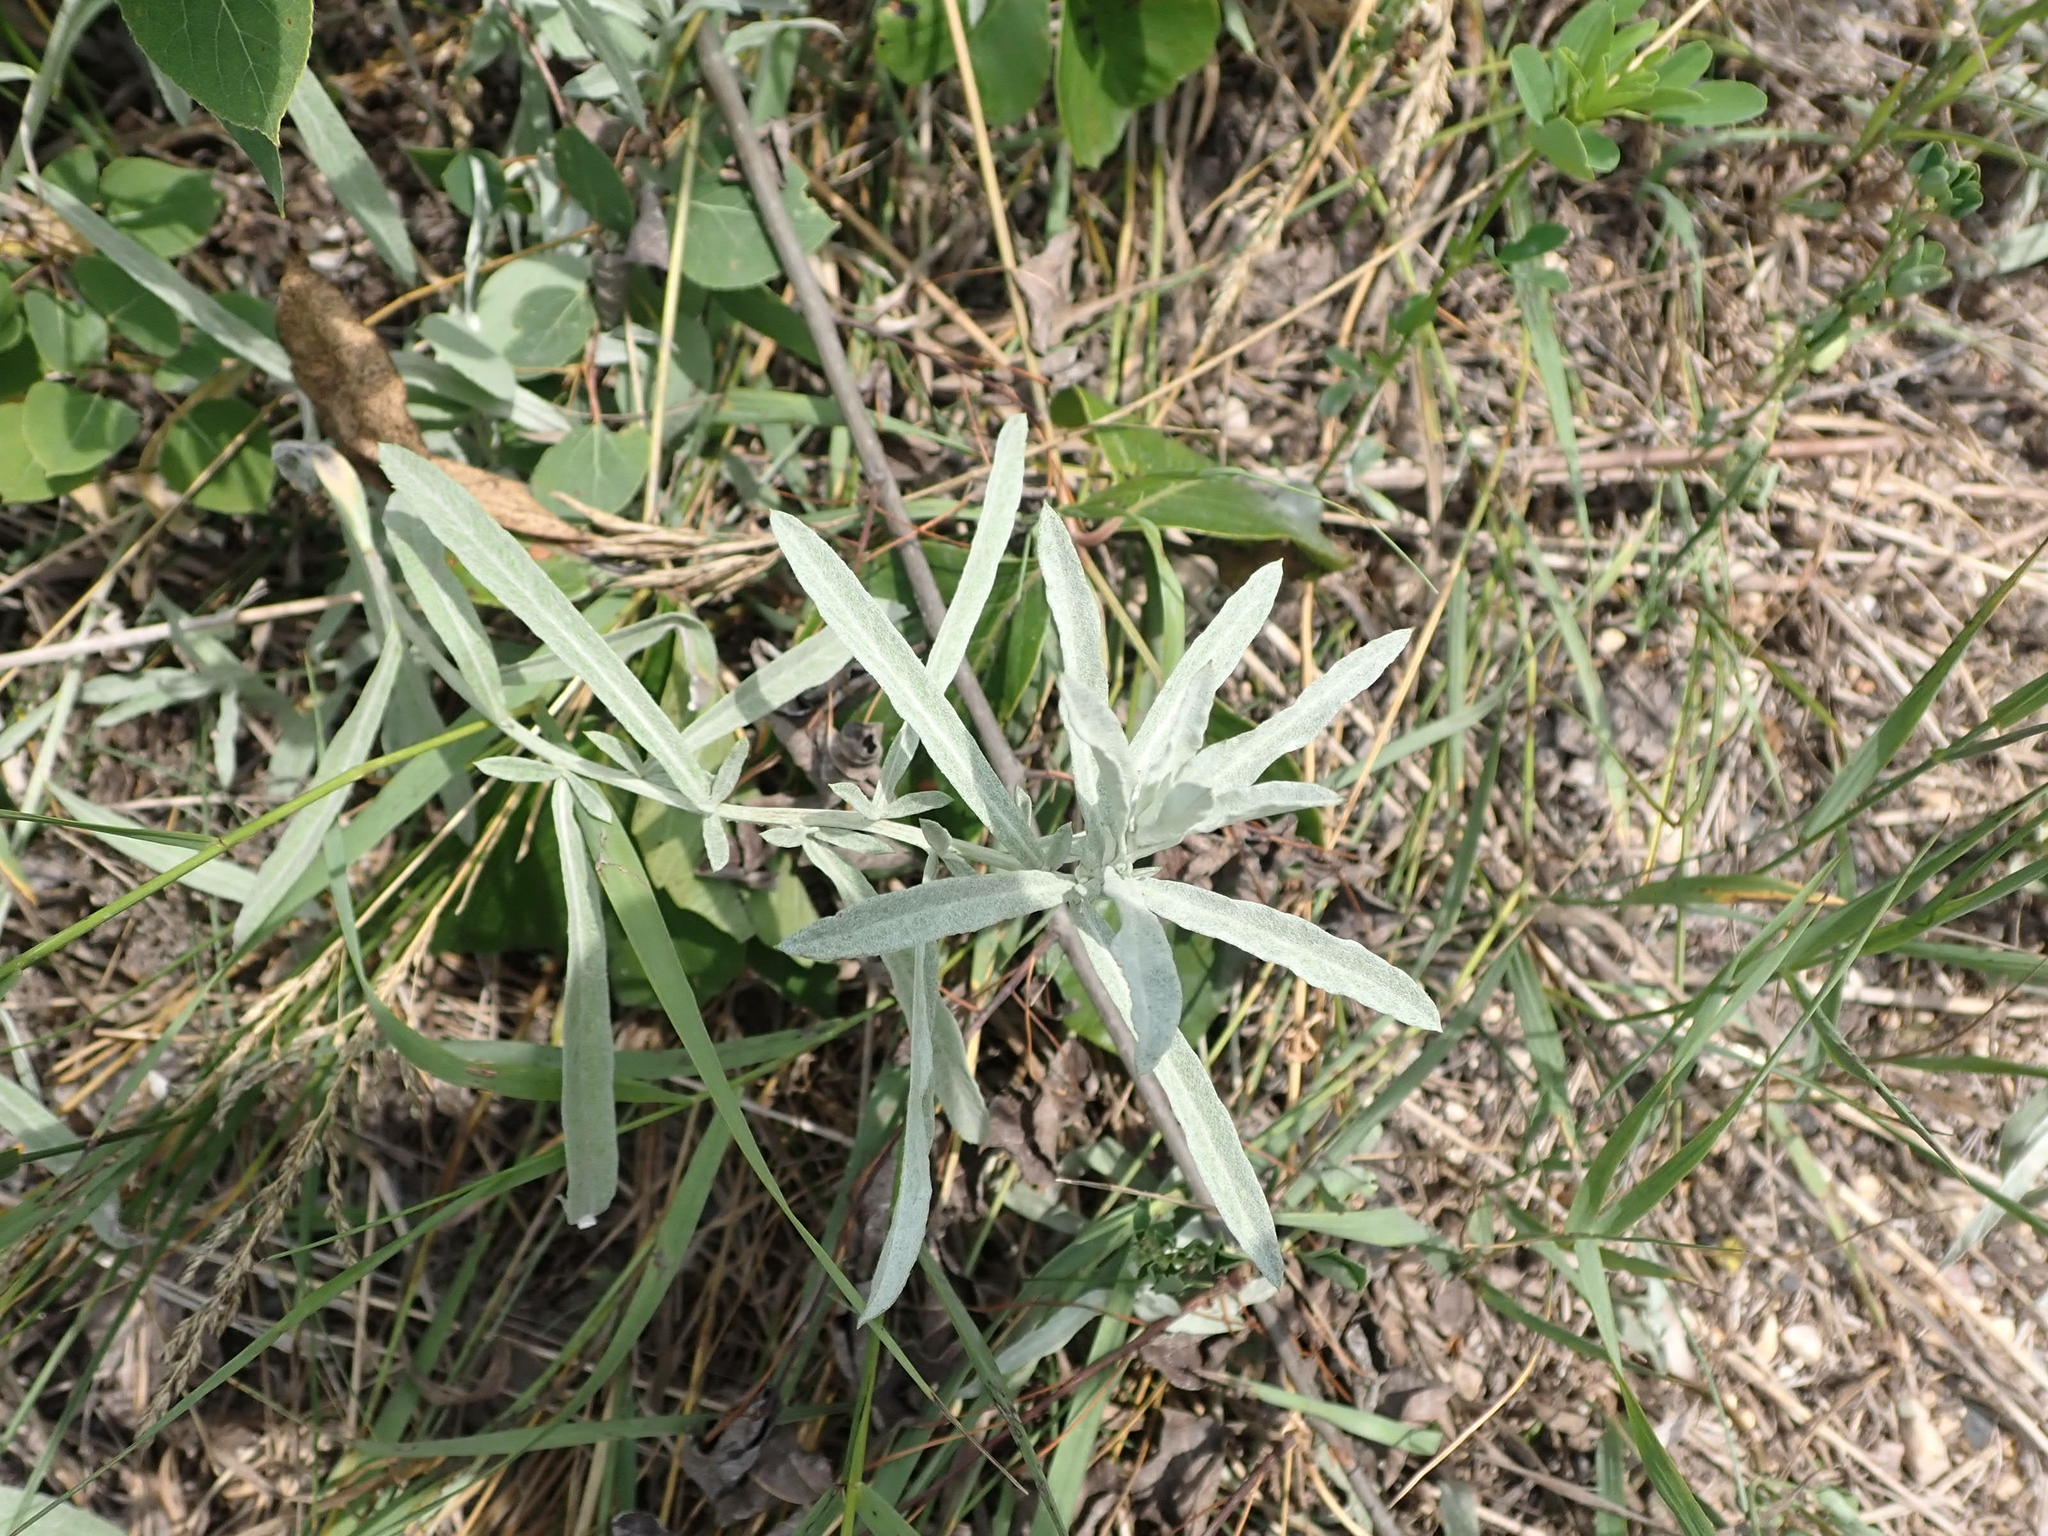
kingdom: Plantae
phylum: Tracheophyta
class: Magnoliopsida
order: Asterales
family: Asteraceae
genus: Artemisia
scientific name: Artemisia ludoviciana
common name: Western mugwort
